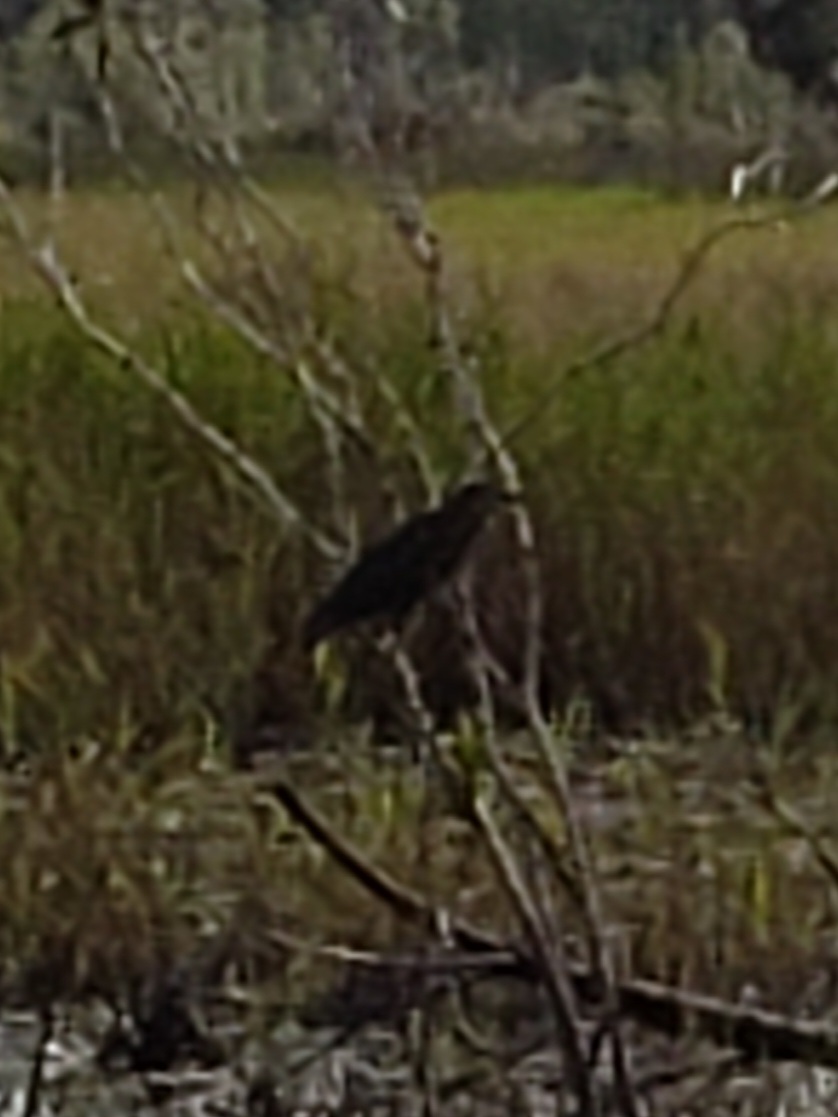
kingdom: Animalia
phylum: Chordata
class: Aves
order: Pelecaniformes
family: Ardeidae
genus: Butorides
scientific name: Butorides virescens
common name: Green heron
